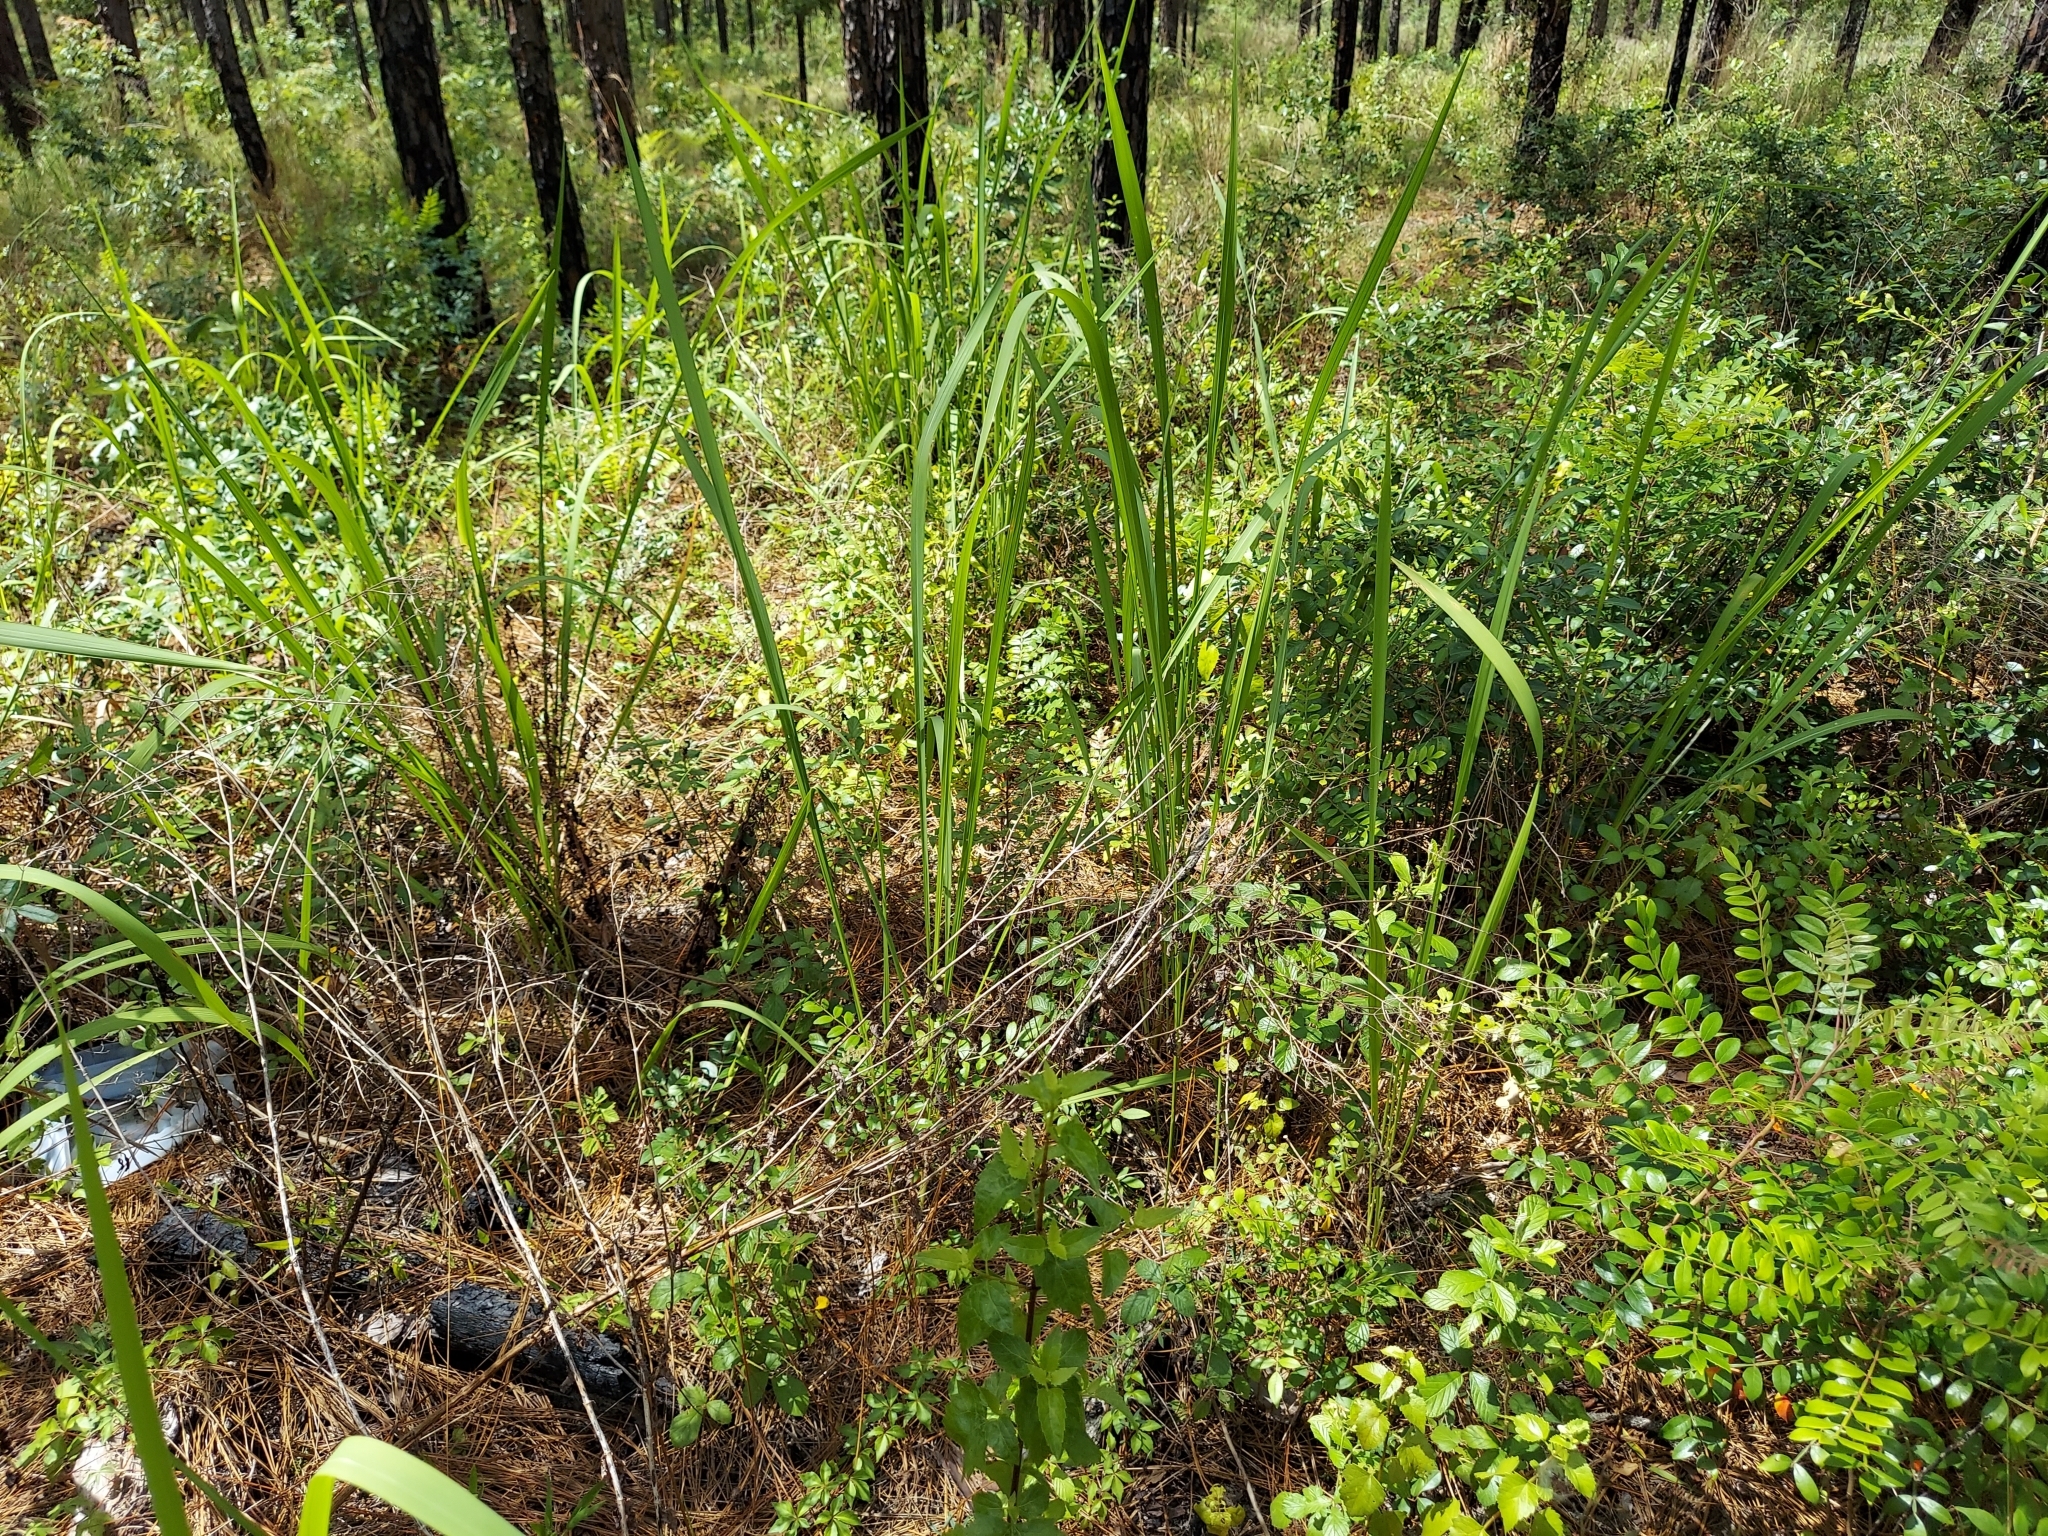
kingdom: Plantae
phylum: Tracheophyta
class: Liliopsida
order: Poales
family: Poaceae
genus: Imperata
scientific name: Imperata cylindrica
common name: Cogongrass
